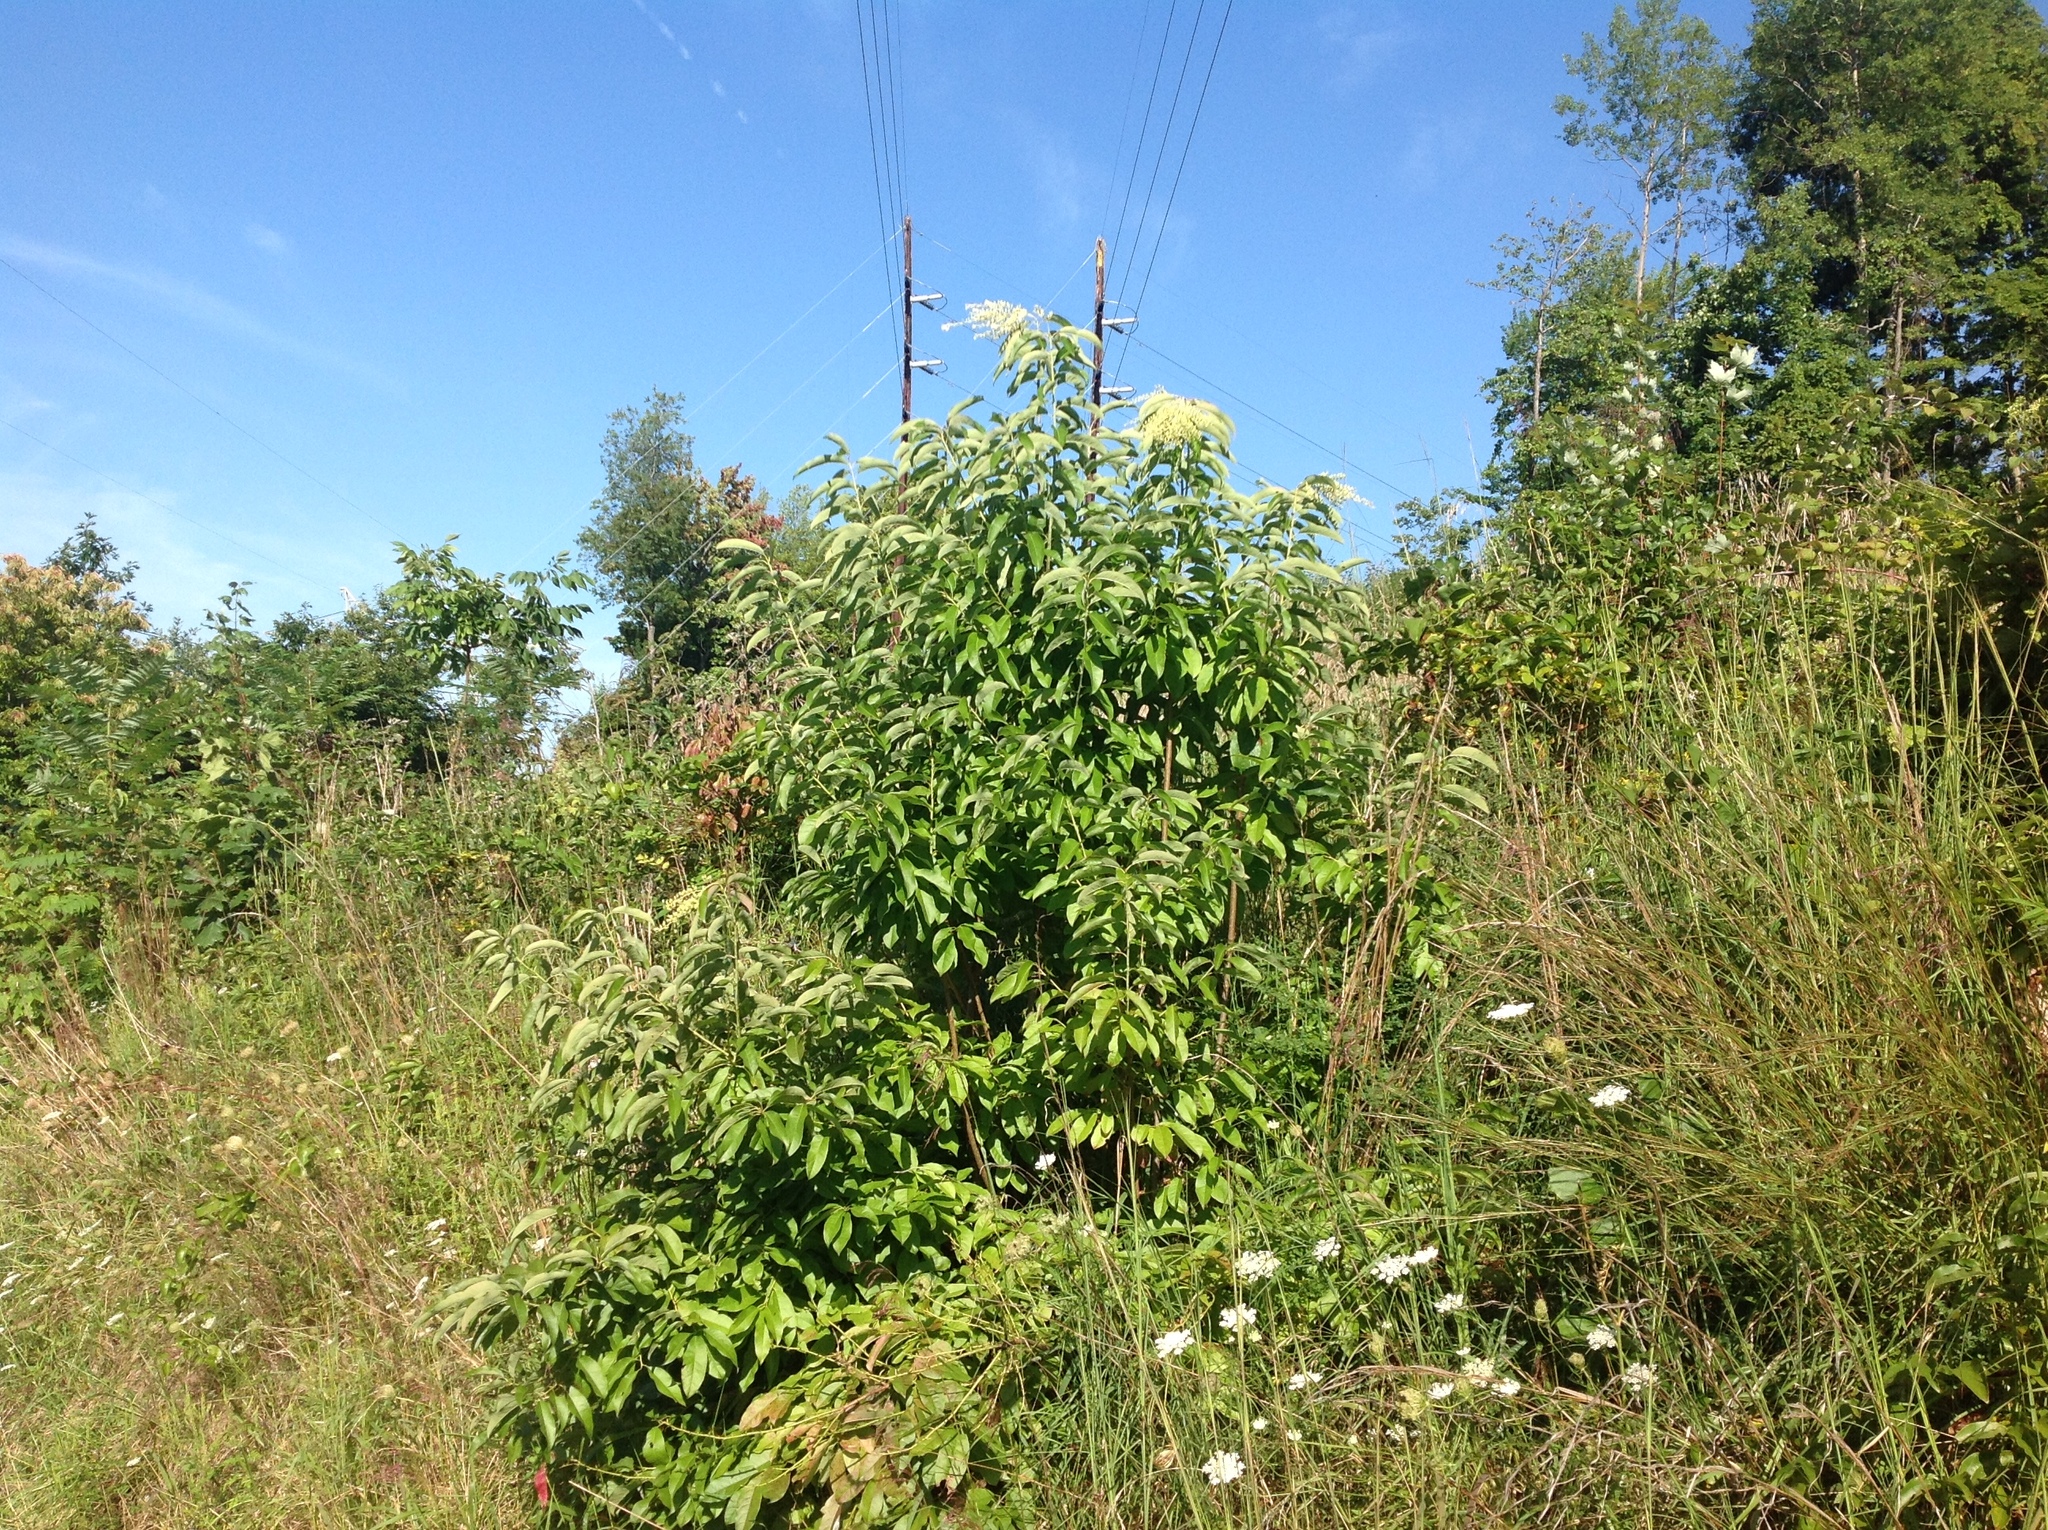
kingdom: Plantae
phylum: Tracheophyta
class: Magnoliopsida
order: Ericales
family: Ericaceae
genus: Oxydendrum
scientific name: Oxydendrum arboreum
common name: Sourwood
